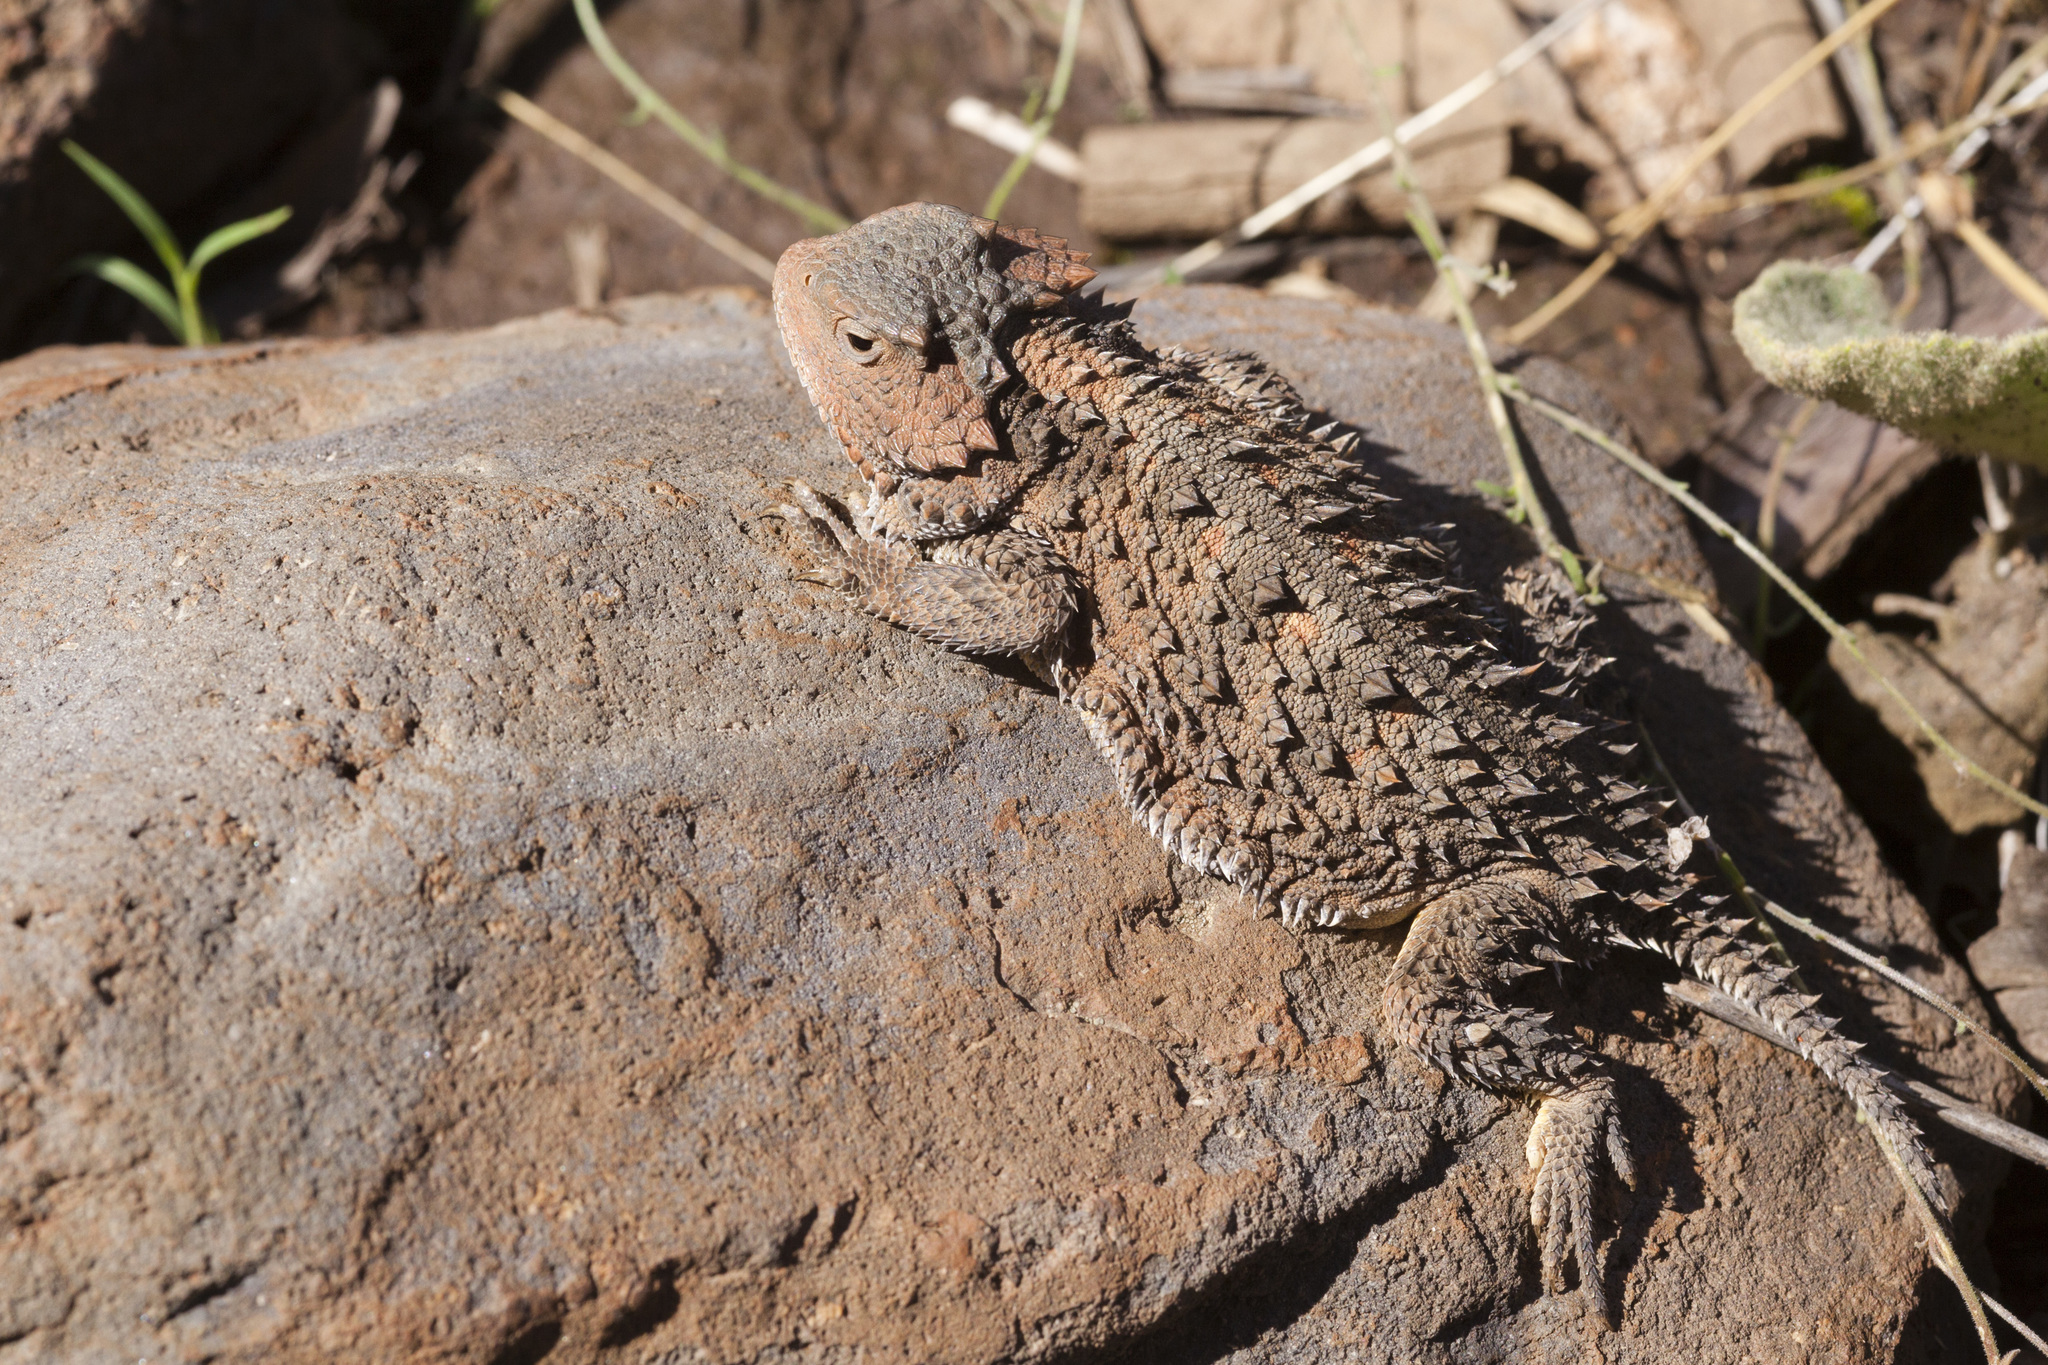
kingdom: Animalia
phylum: Chordata
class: Squamata
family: Phrynosomatidae
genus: Phrynosoma
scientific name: Phrynosoma hernandesi
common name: Greater short-horned lizard
